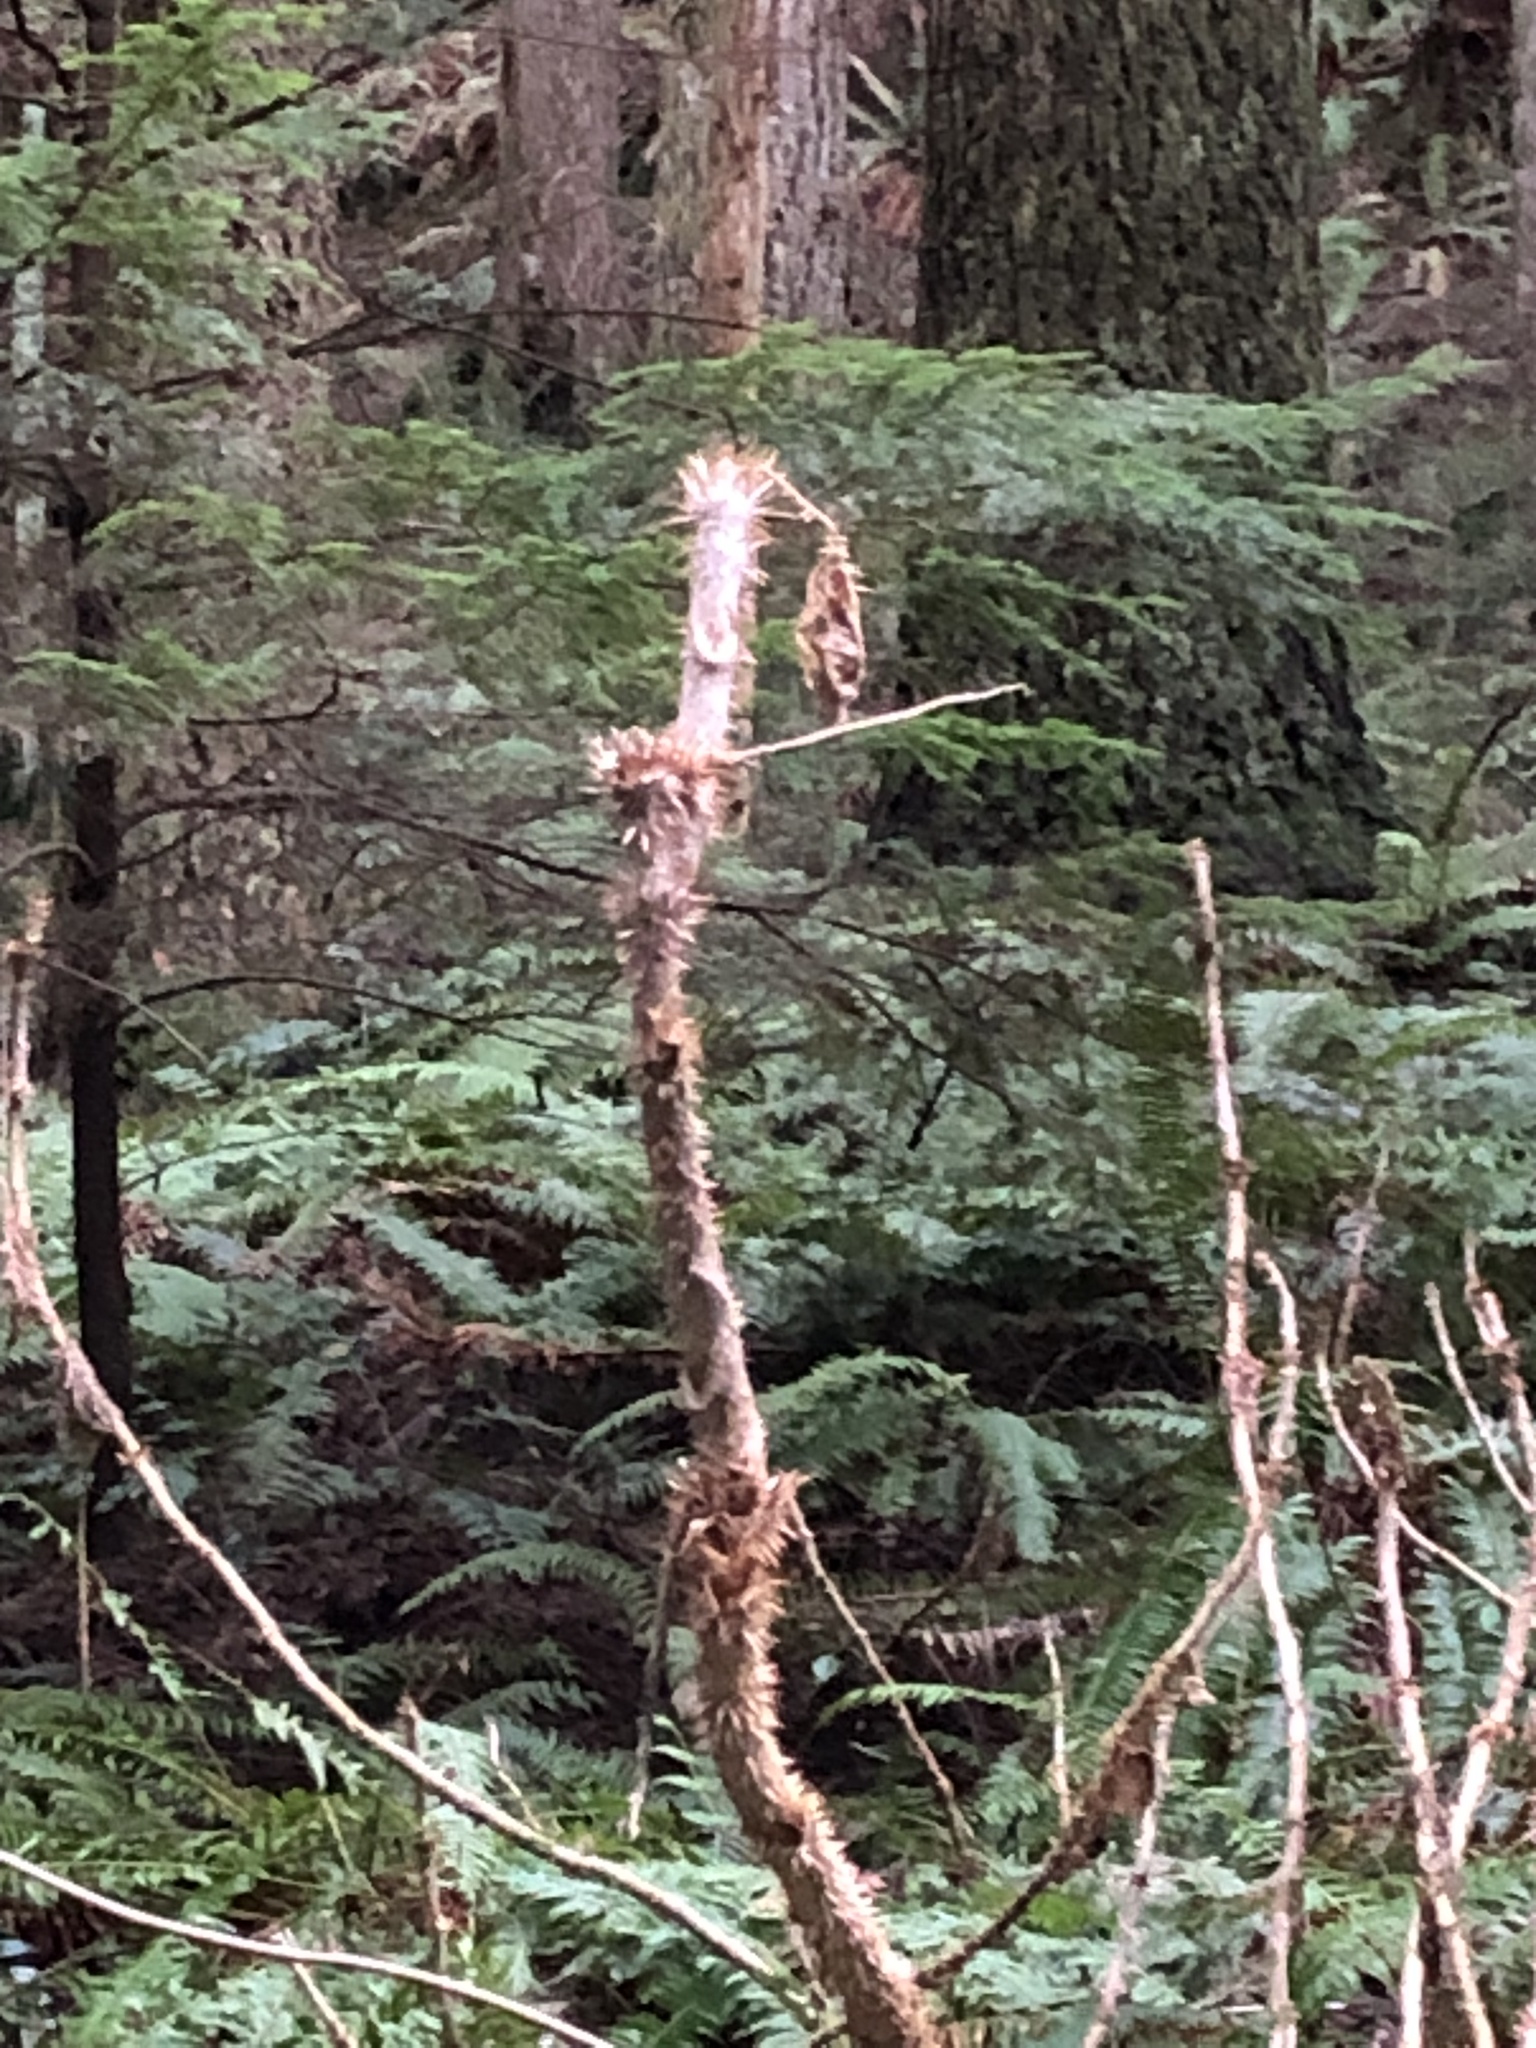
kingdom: Plantae
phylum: Tracheophyta
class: Magnoliopsida
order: Apiales
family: Araliaceae
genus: Oplopanax
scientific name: Oplopanax horridus
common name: Devil's walking-stick
